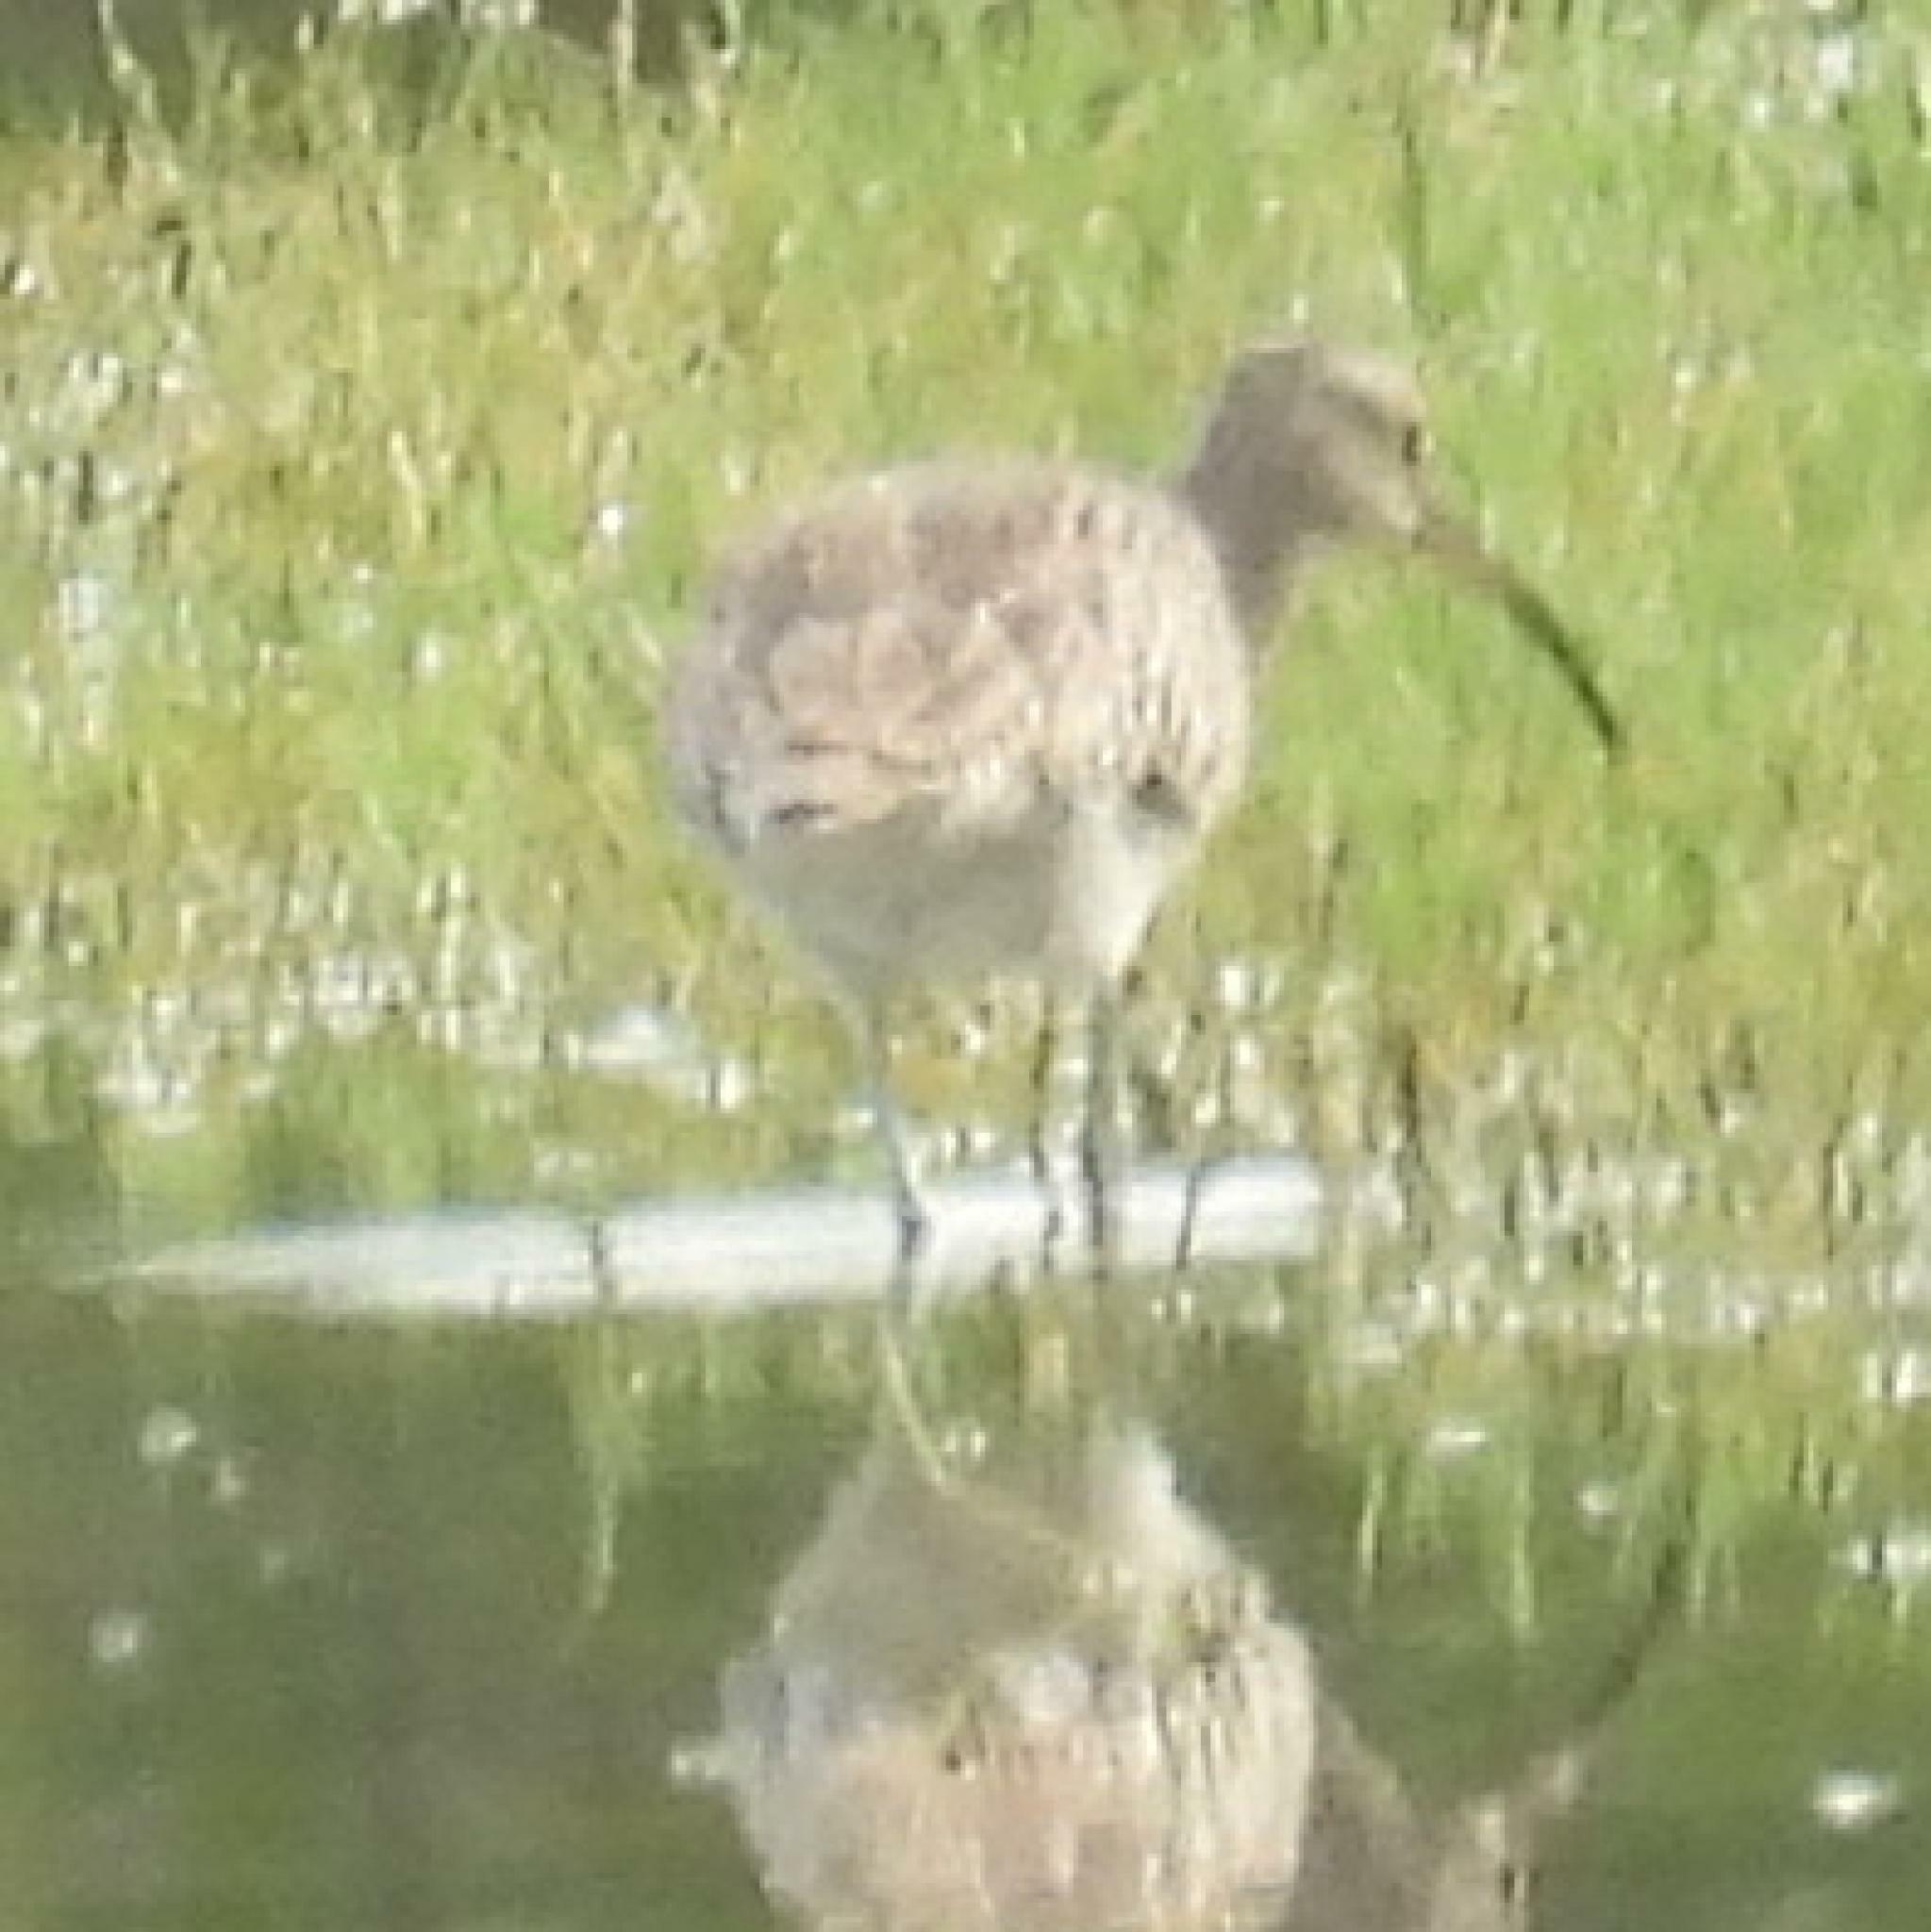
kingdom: Animalia
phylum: Chordata
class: Aves
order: Charadriiformes
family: Scolopacidae
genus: Numenius
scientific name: Numenius phaeopus
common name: Whimbrel
